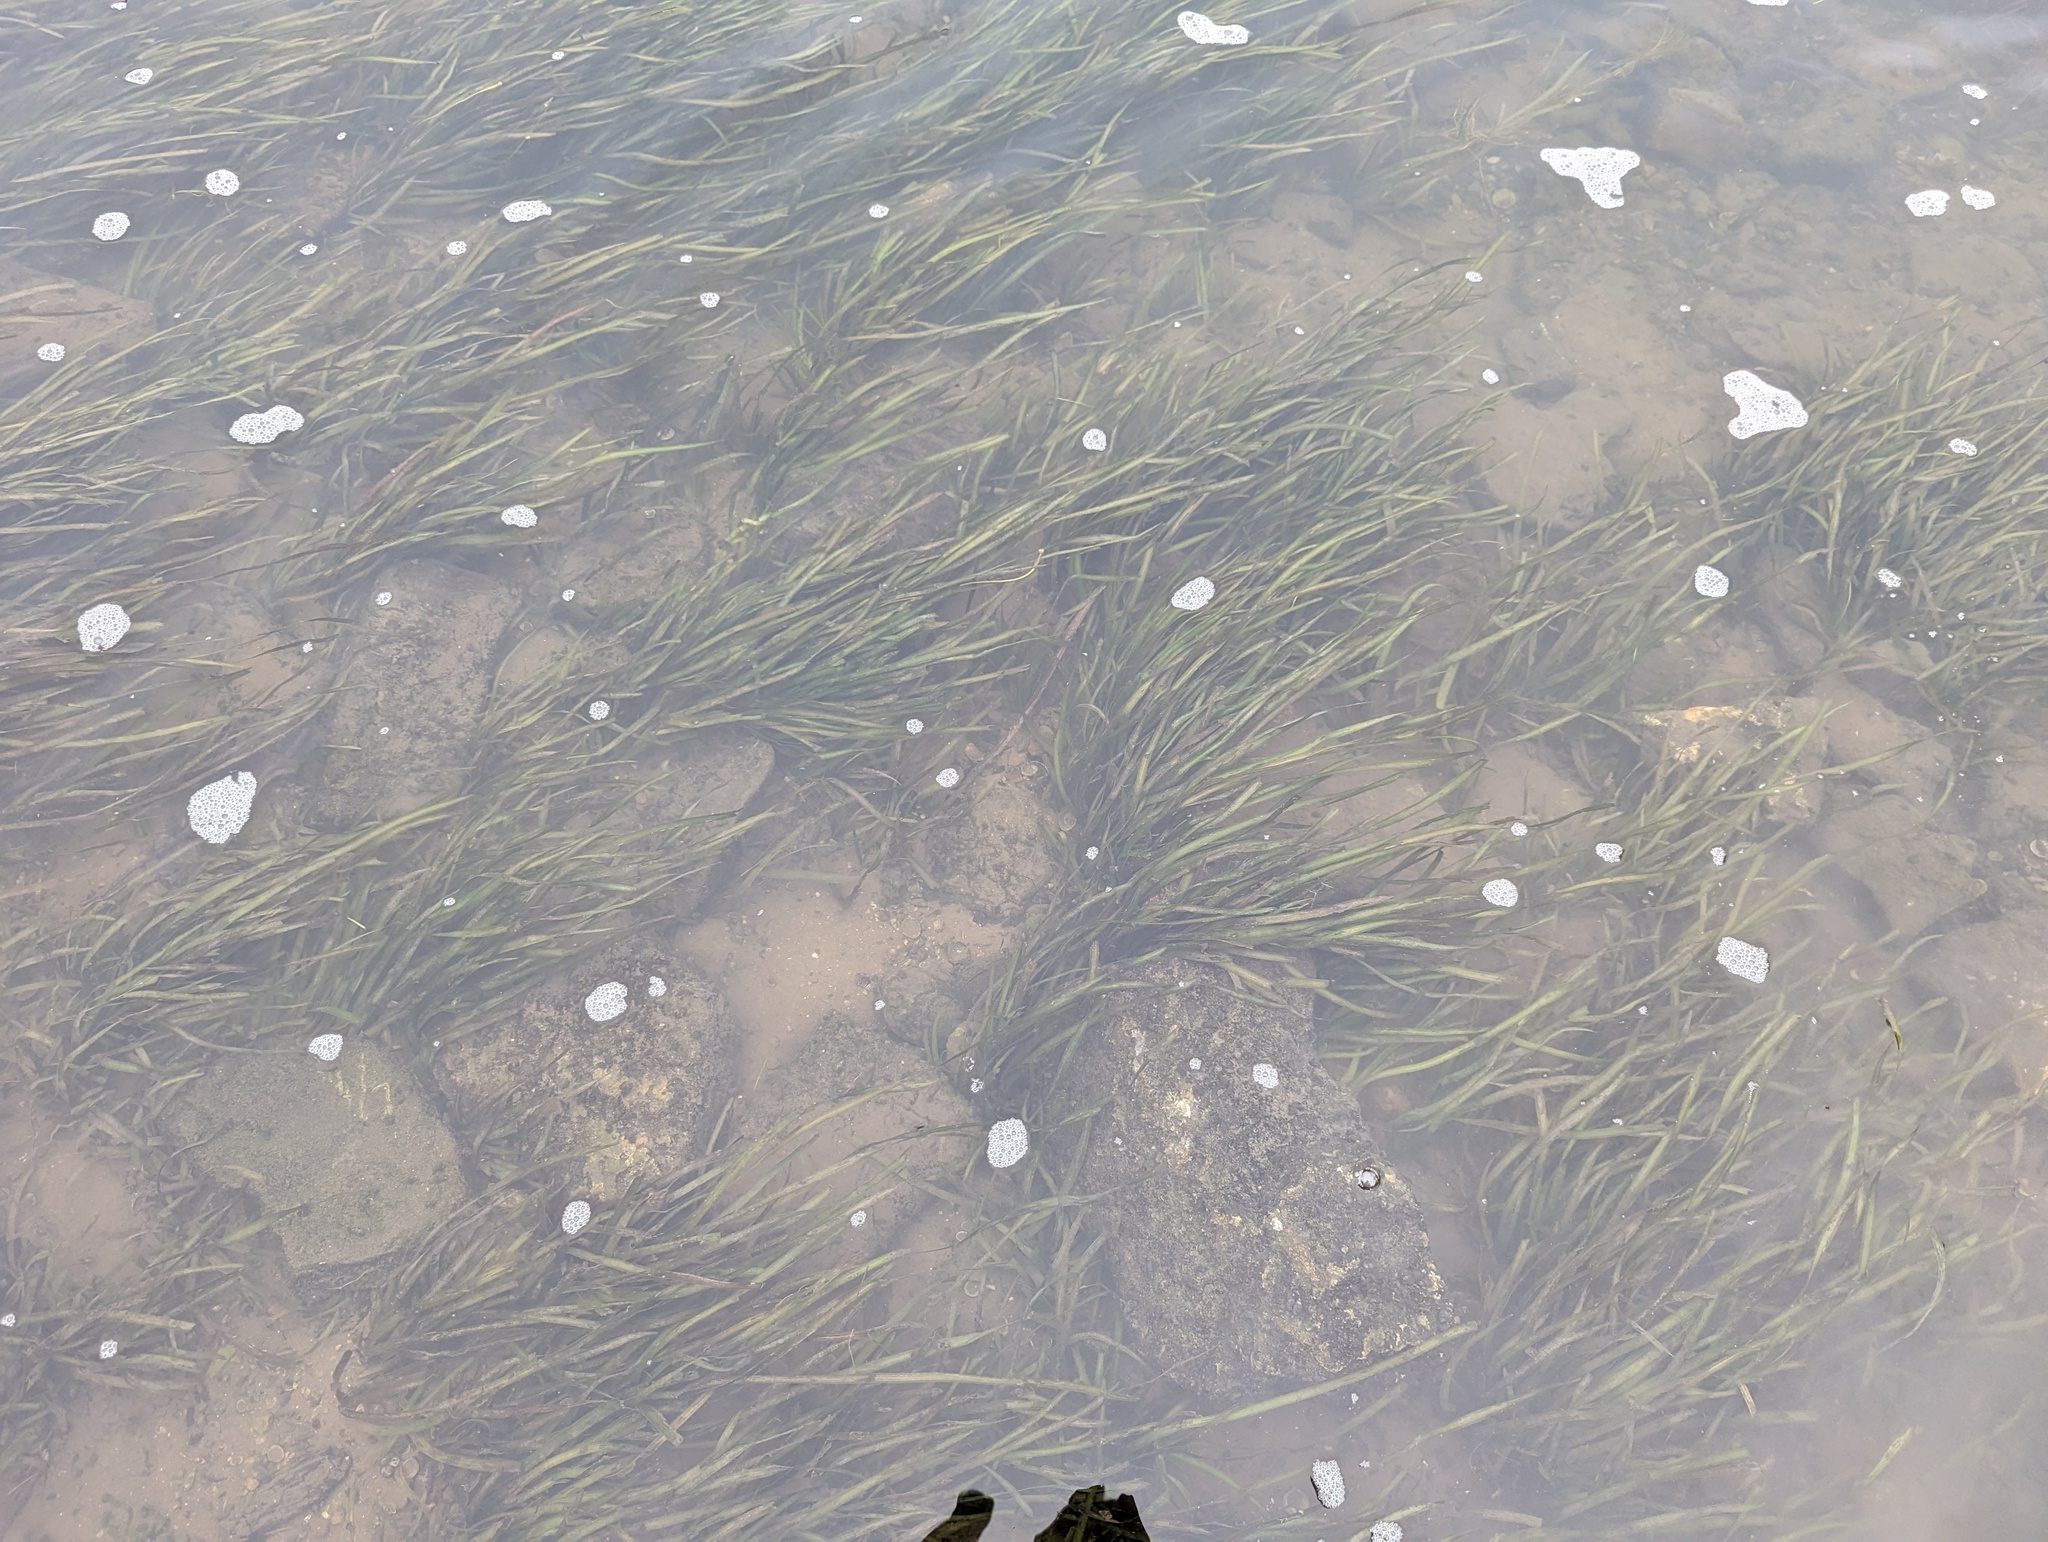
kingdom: Plantae
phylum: Tracheophyta
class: Liliopsida
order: Alismatales
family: Hydrocharitaceae
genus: Vallisneria
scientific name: Vallisneria americana
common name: American eelgrass
